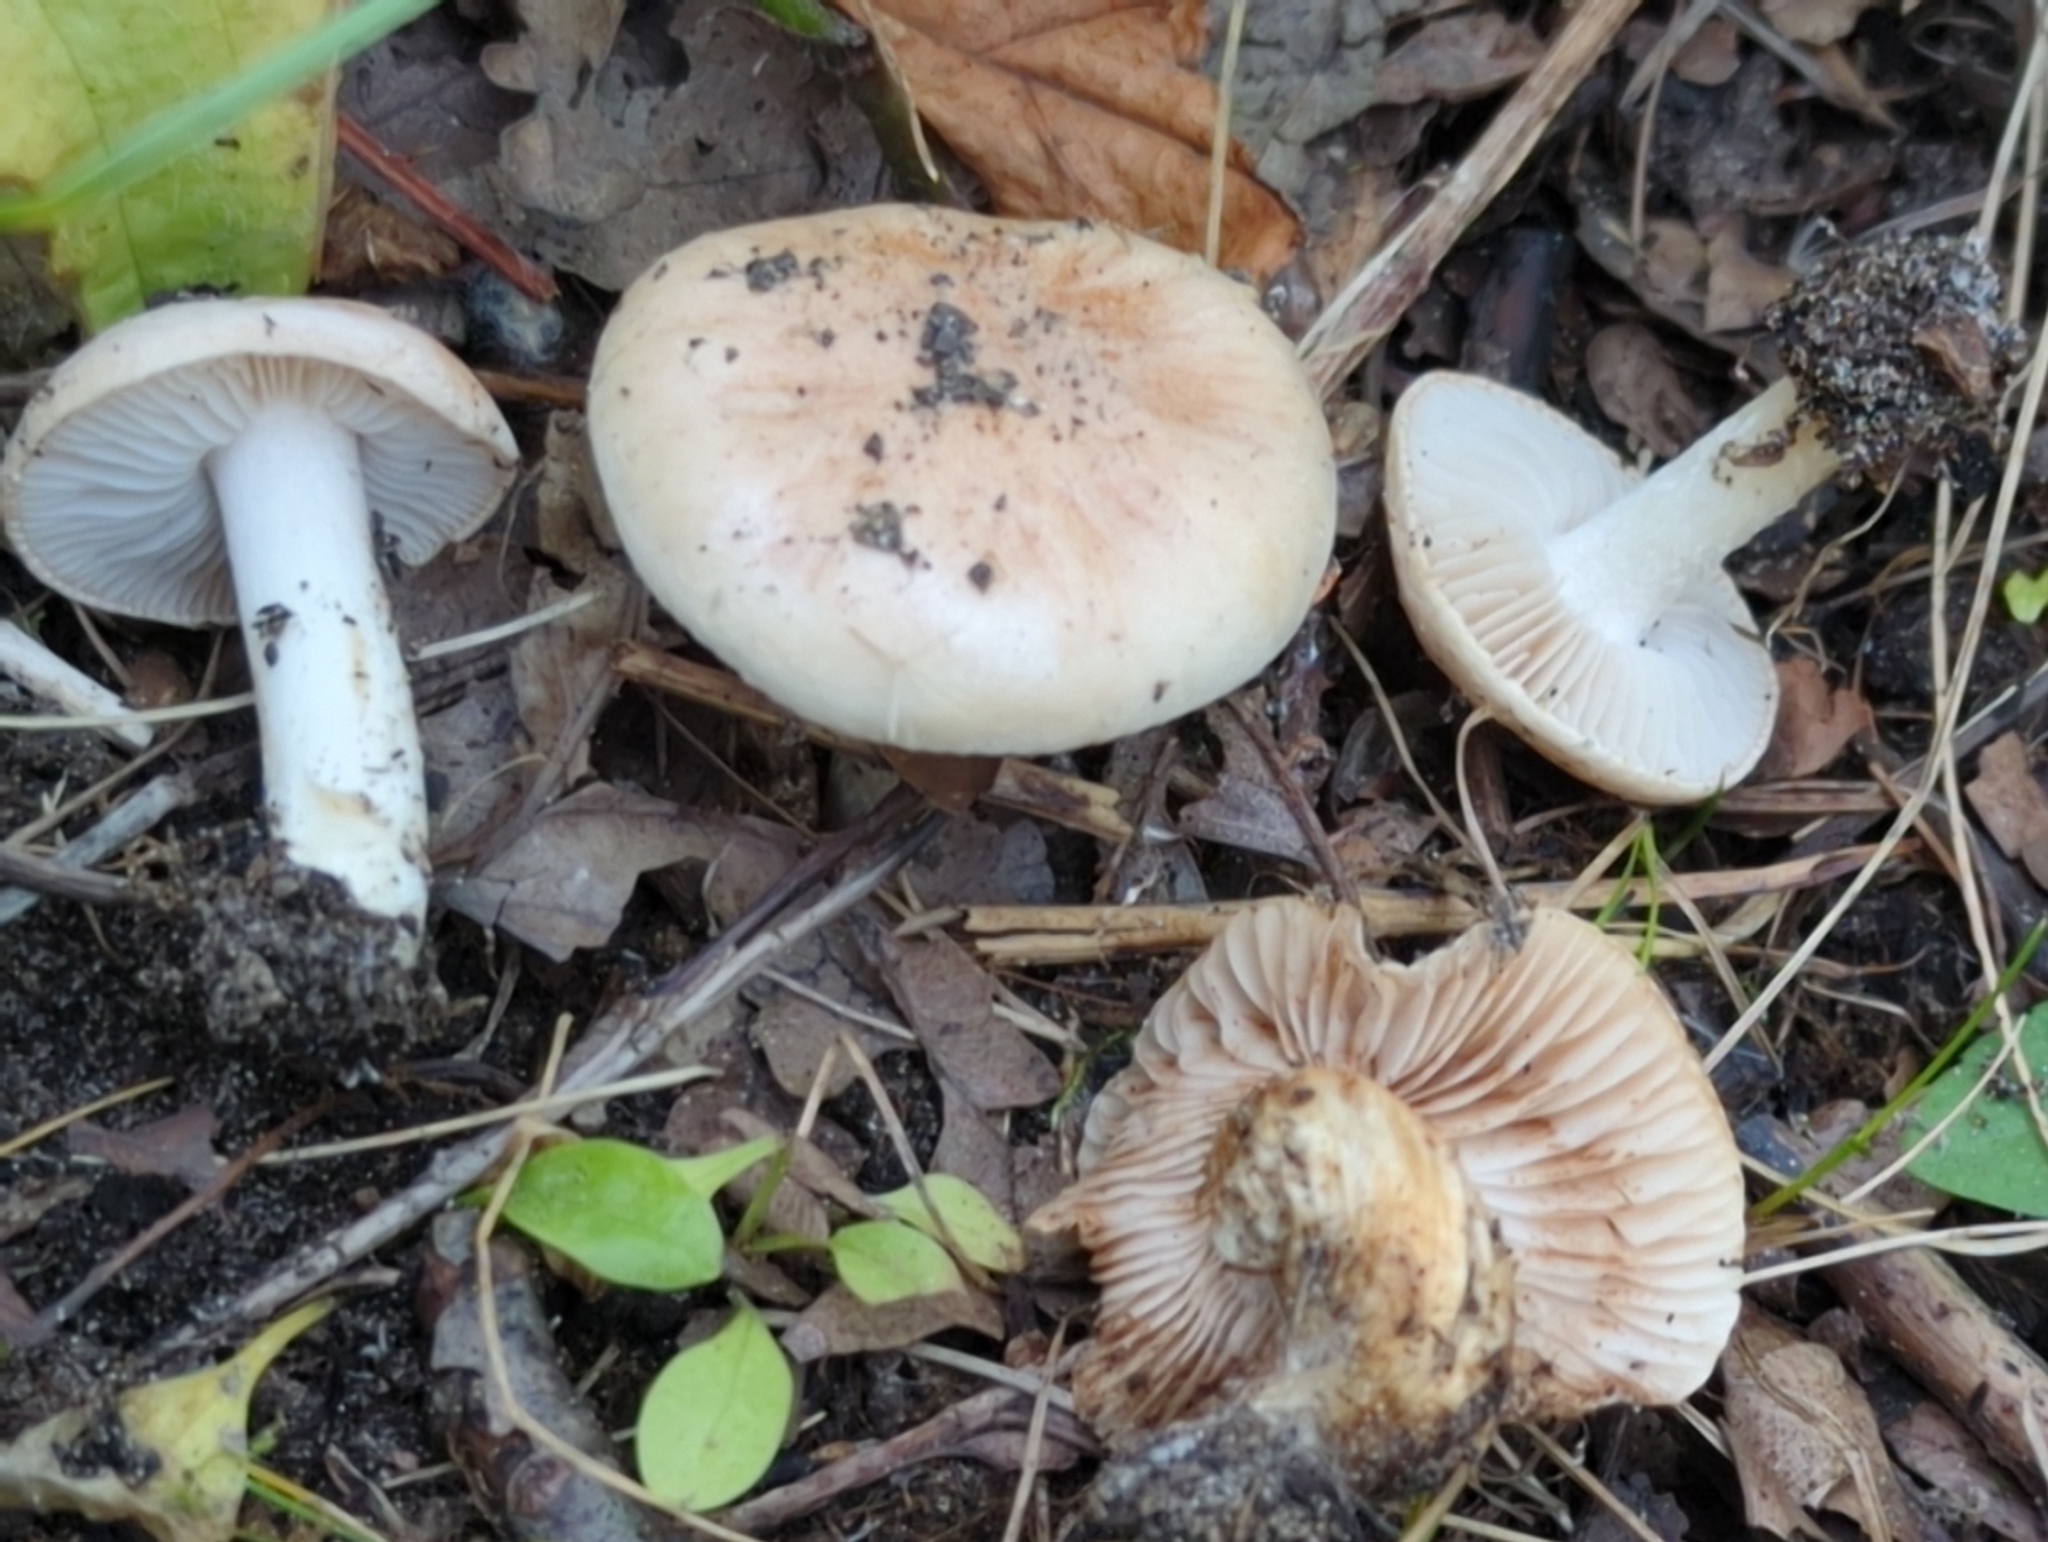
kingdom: Fungi
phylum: Basidiomycota
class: Agaricomycetes
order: Agaricales
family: Hymenogastraceae
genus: Hebeloma
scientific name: Hebeloma sordidum
